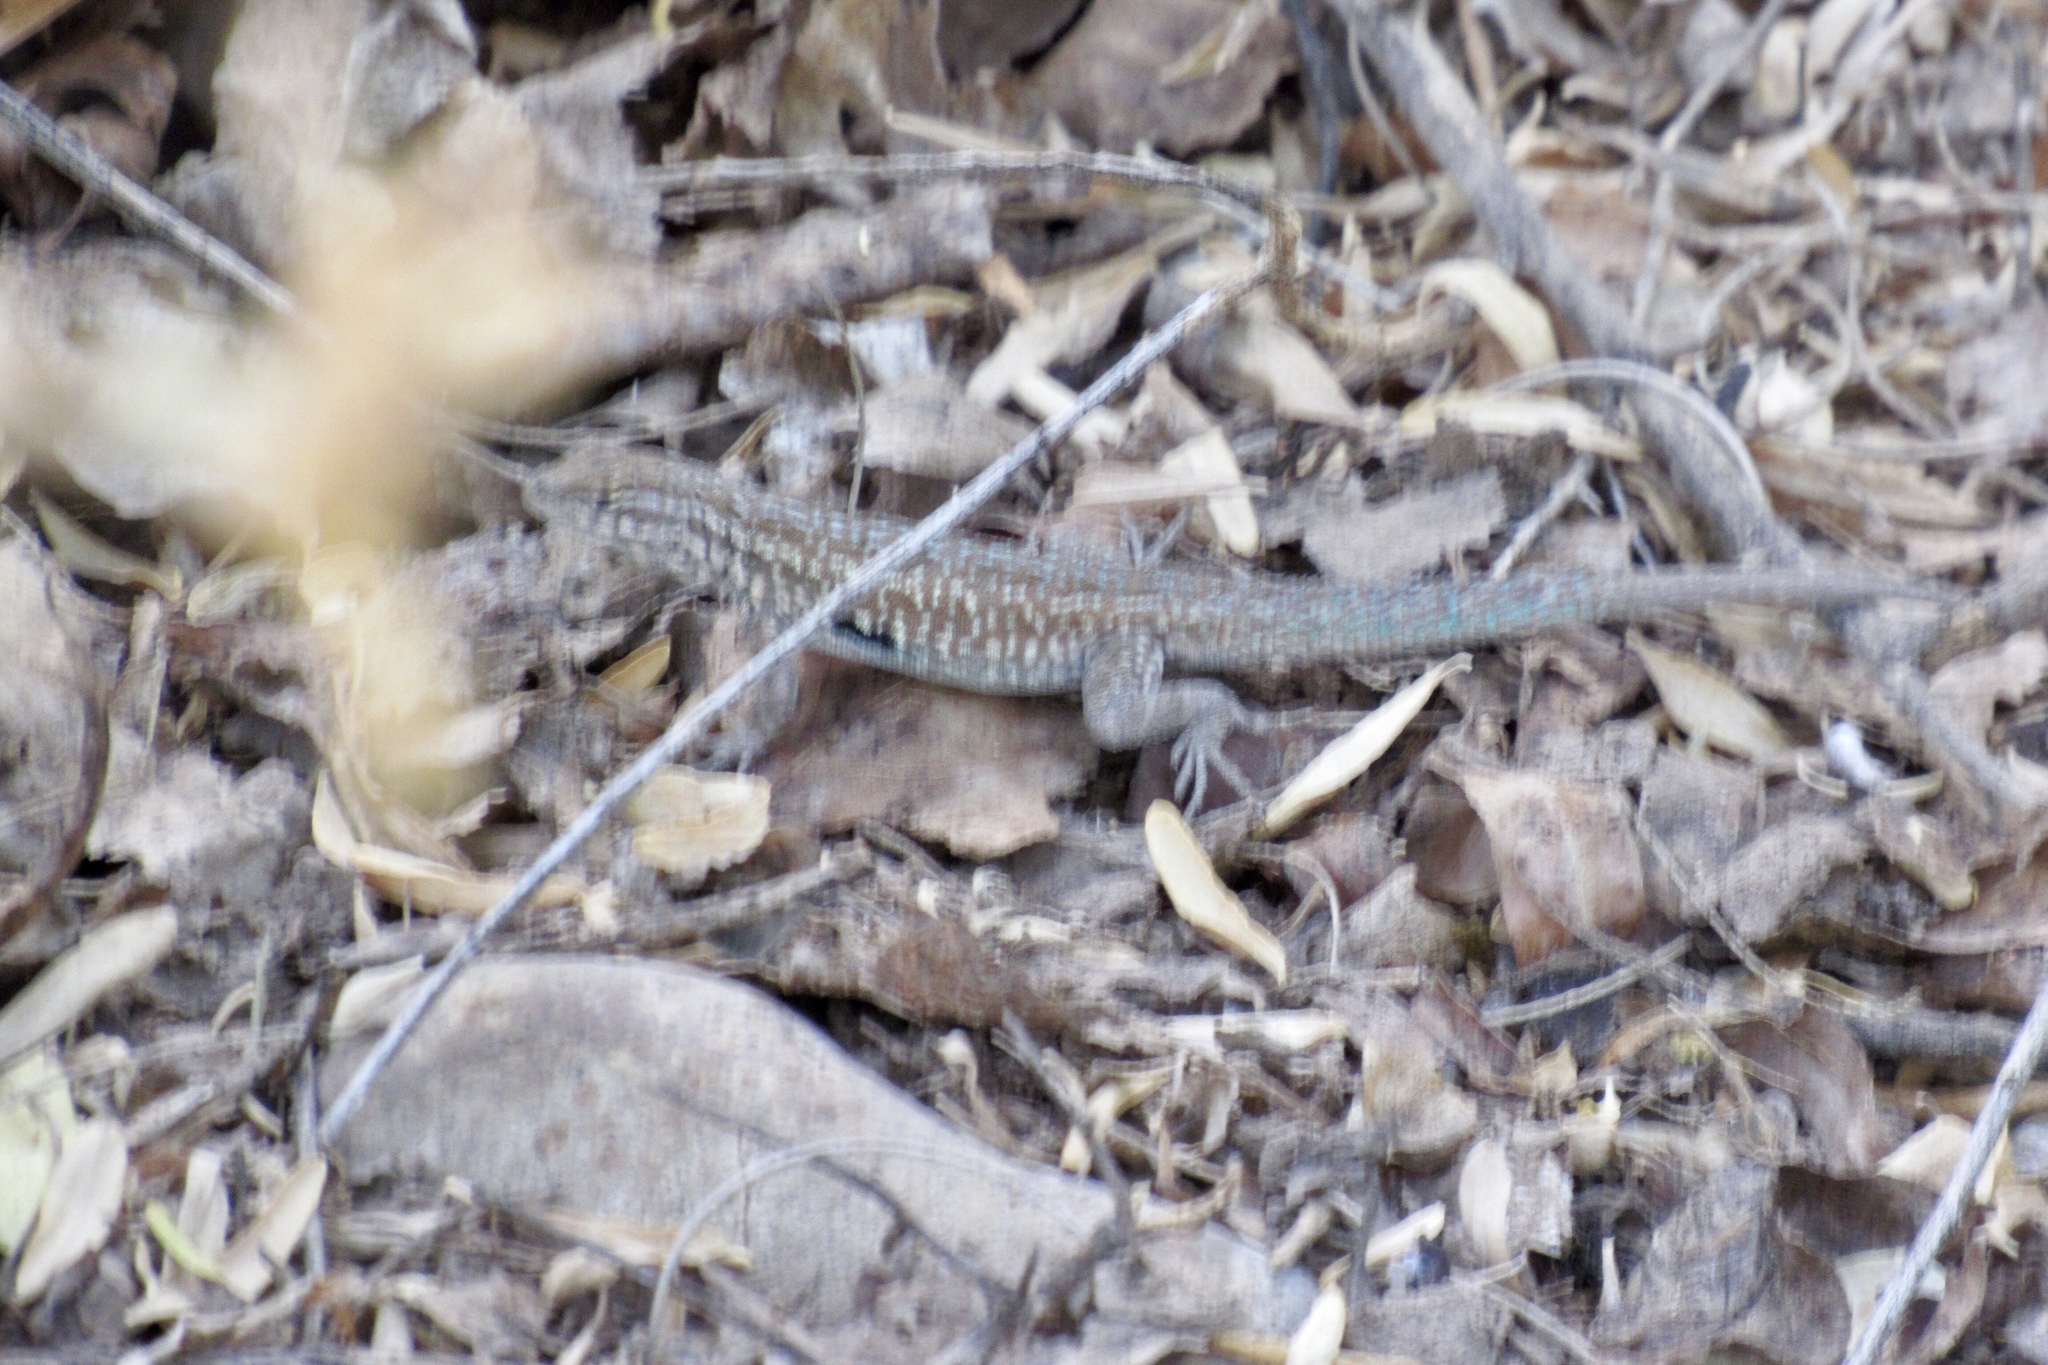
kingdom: Animalia
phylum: Chordata
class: Squamata
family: Phrynosomatidae
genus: Uta
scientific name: Uta stansburiana
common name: Side-blotched lizard
